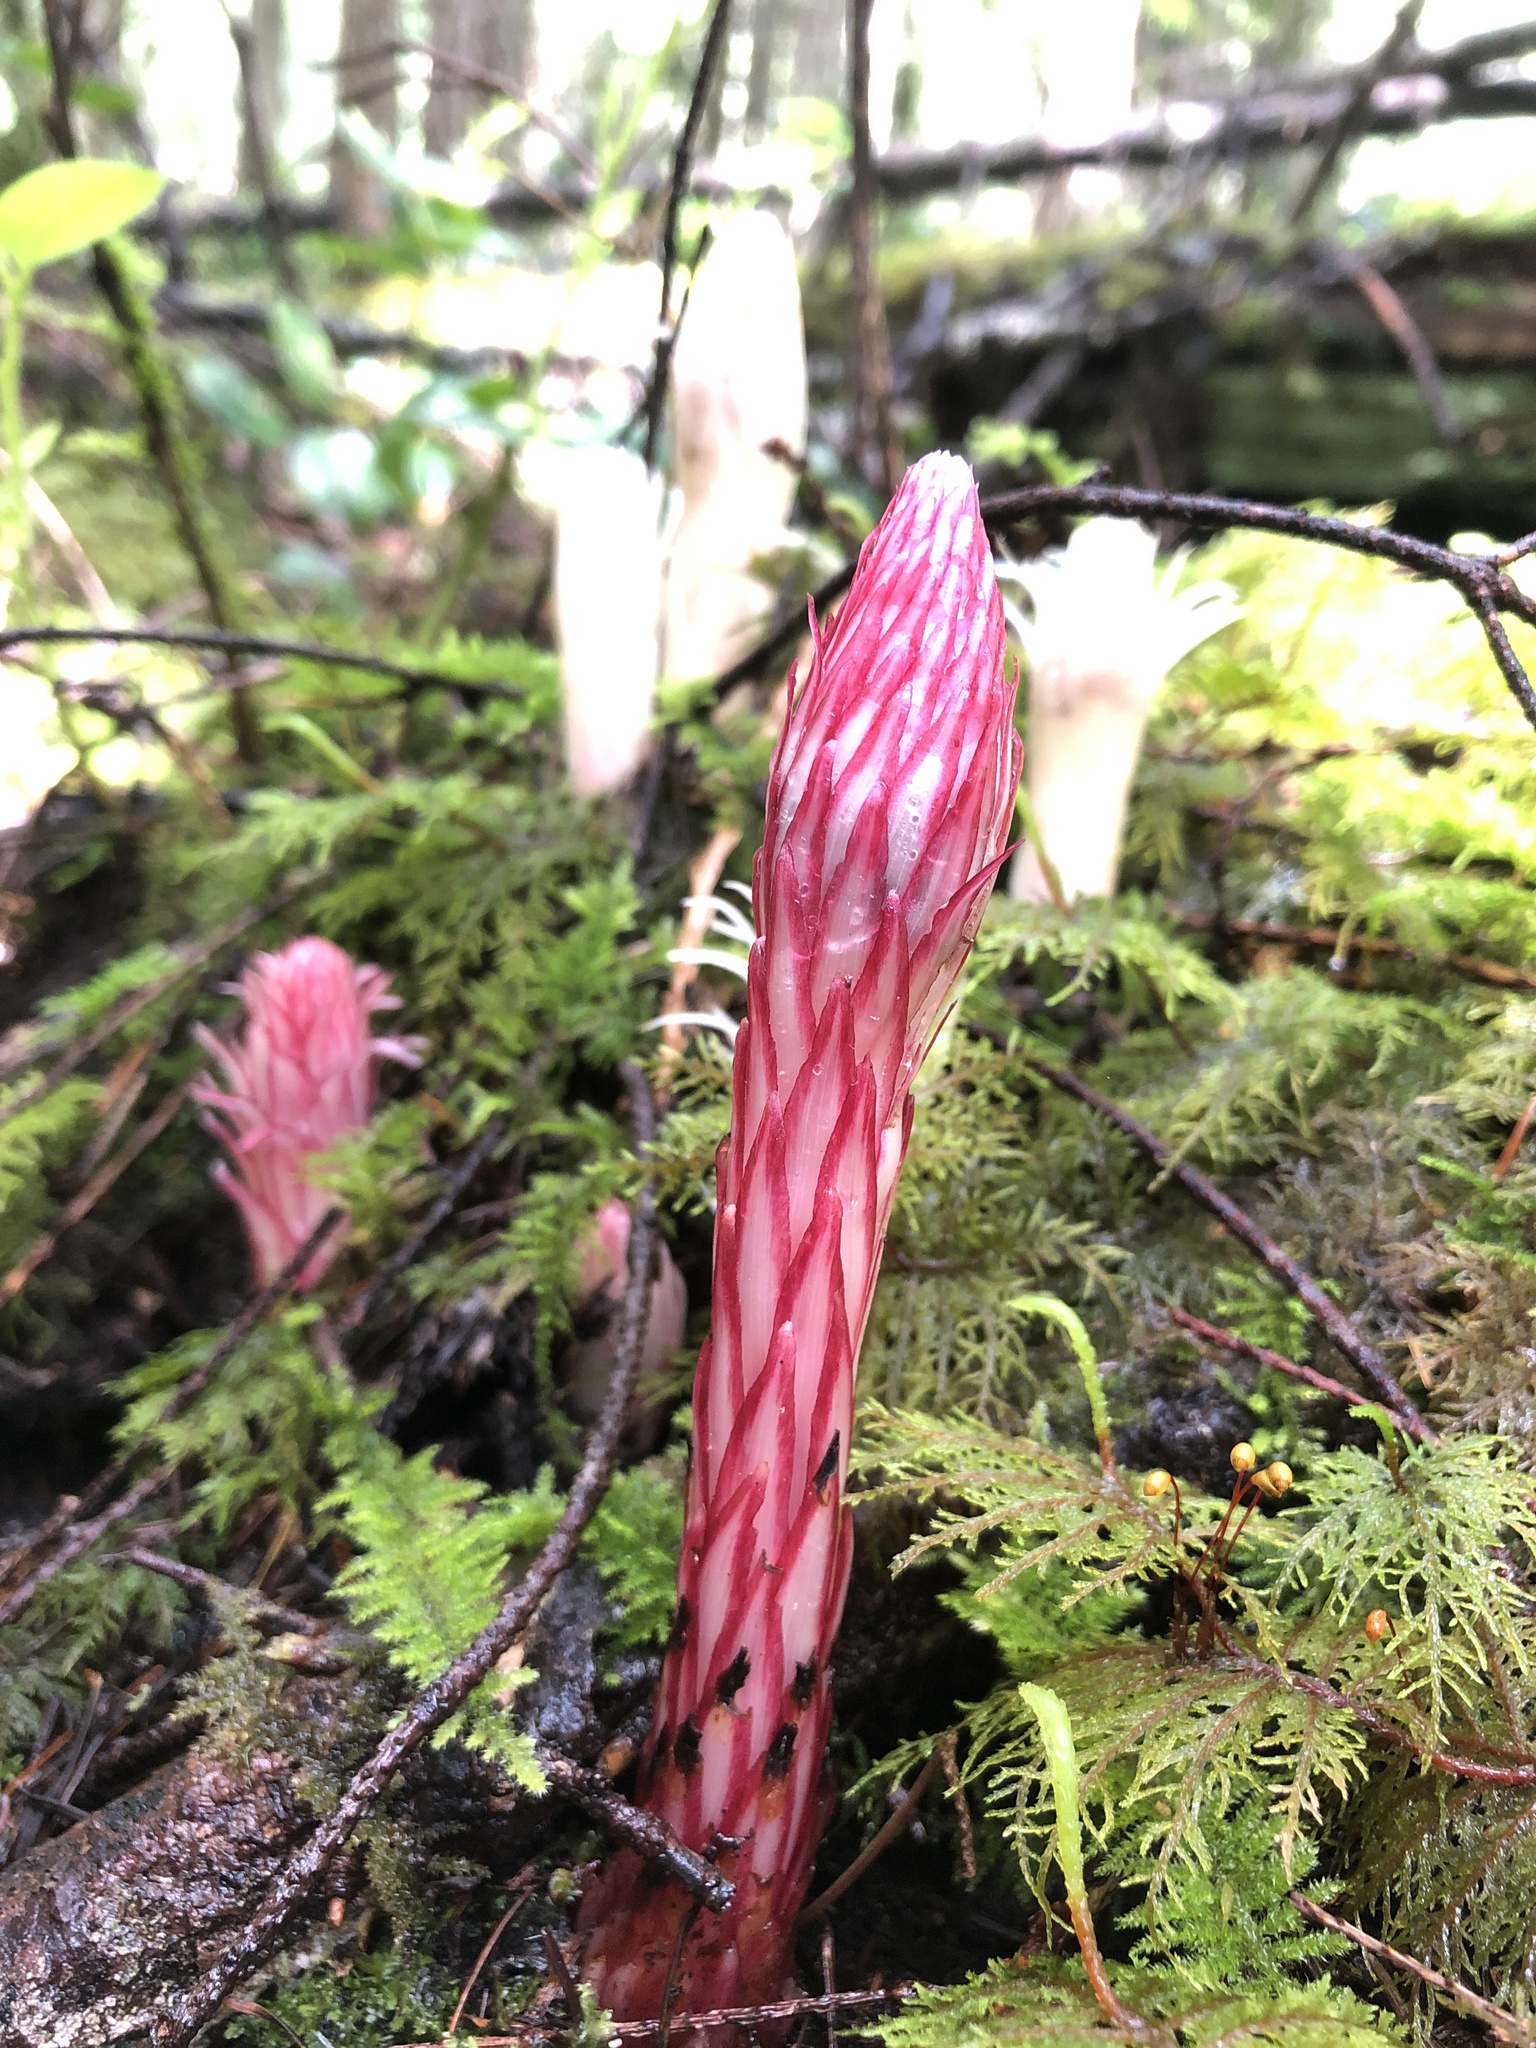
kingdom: Plantae
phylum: Tracheophyta
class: Magnoliopsida
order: Ericales
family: Ericaceae
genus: Allotropa
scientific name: Allotropa virgata
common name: Candy-striped allotropa
